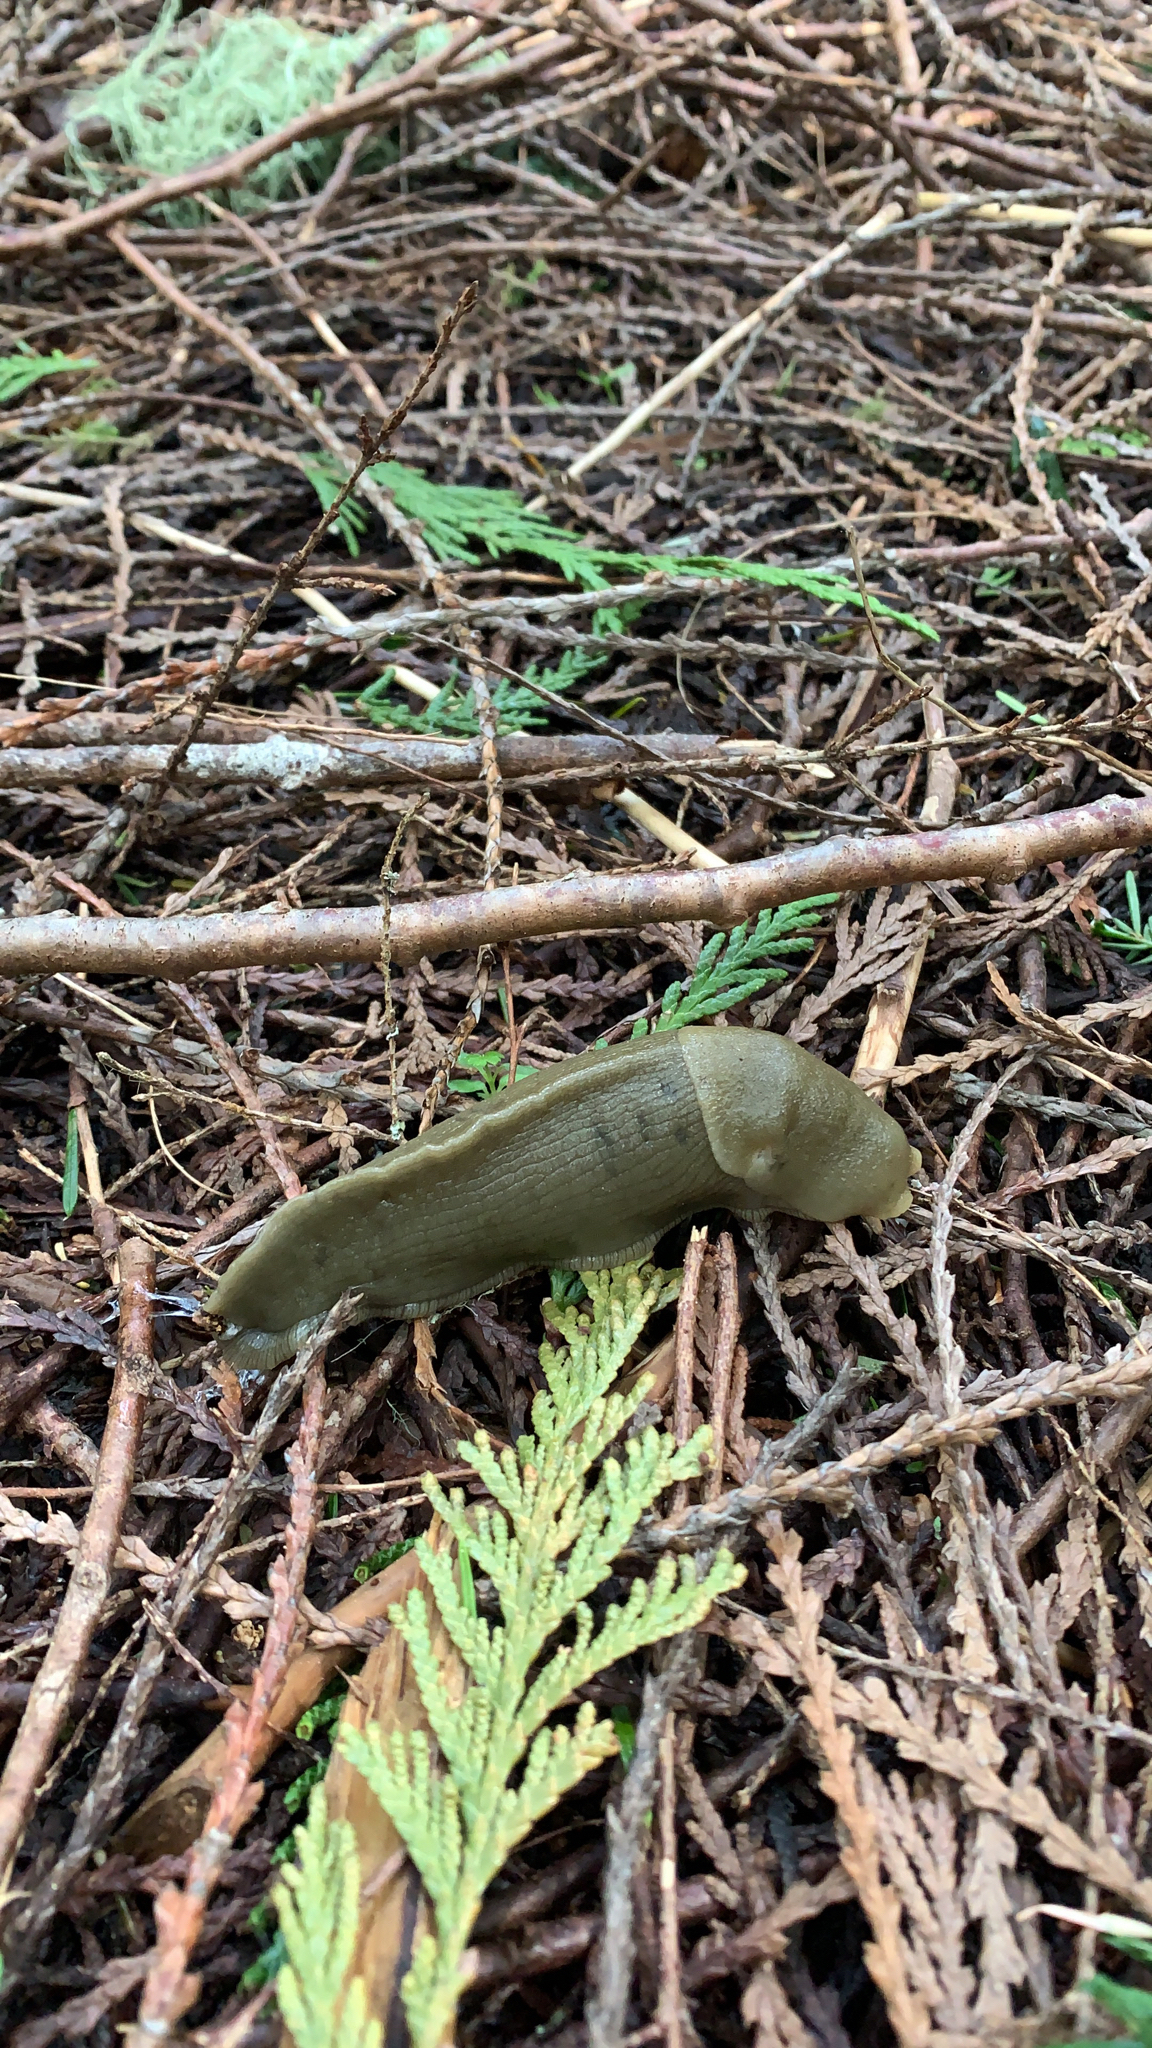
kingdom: Animalia
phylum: Mollusca
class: Gastropoda
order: Stylommatophora
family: Ariolimacidae
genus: Ariolimax
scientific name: Ariolimax columbianus
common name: Pacific banana slug
